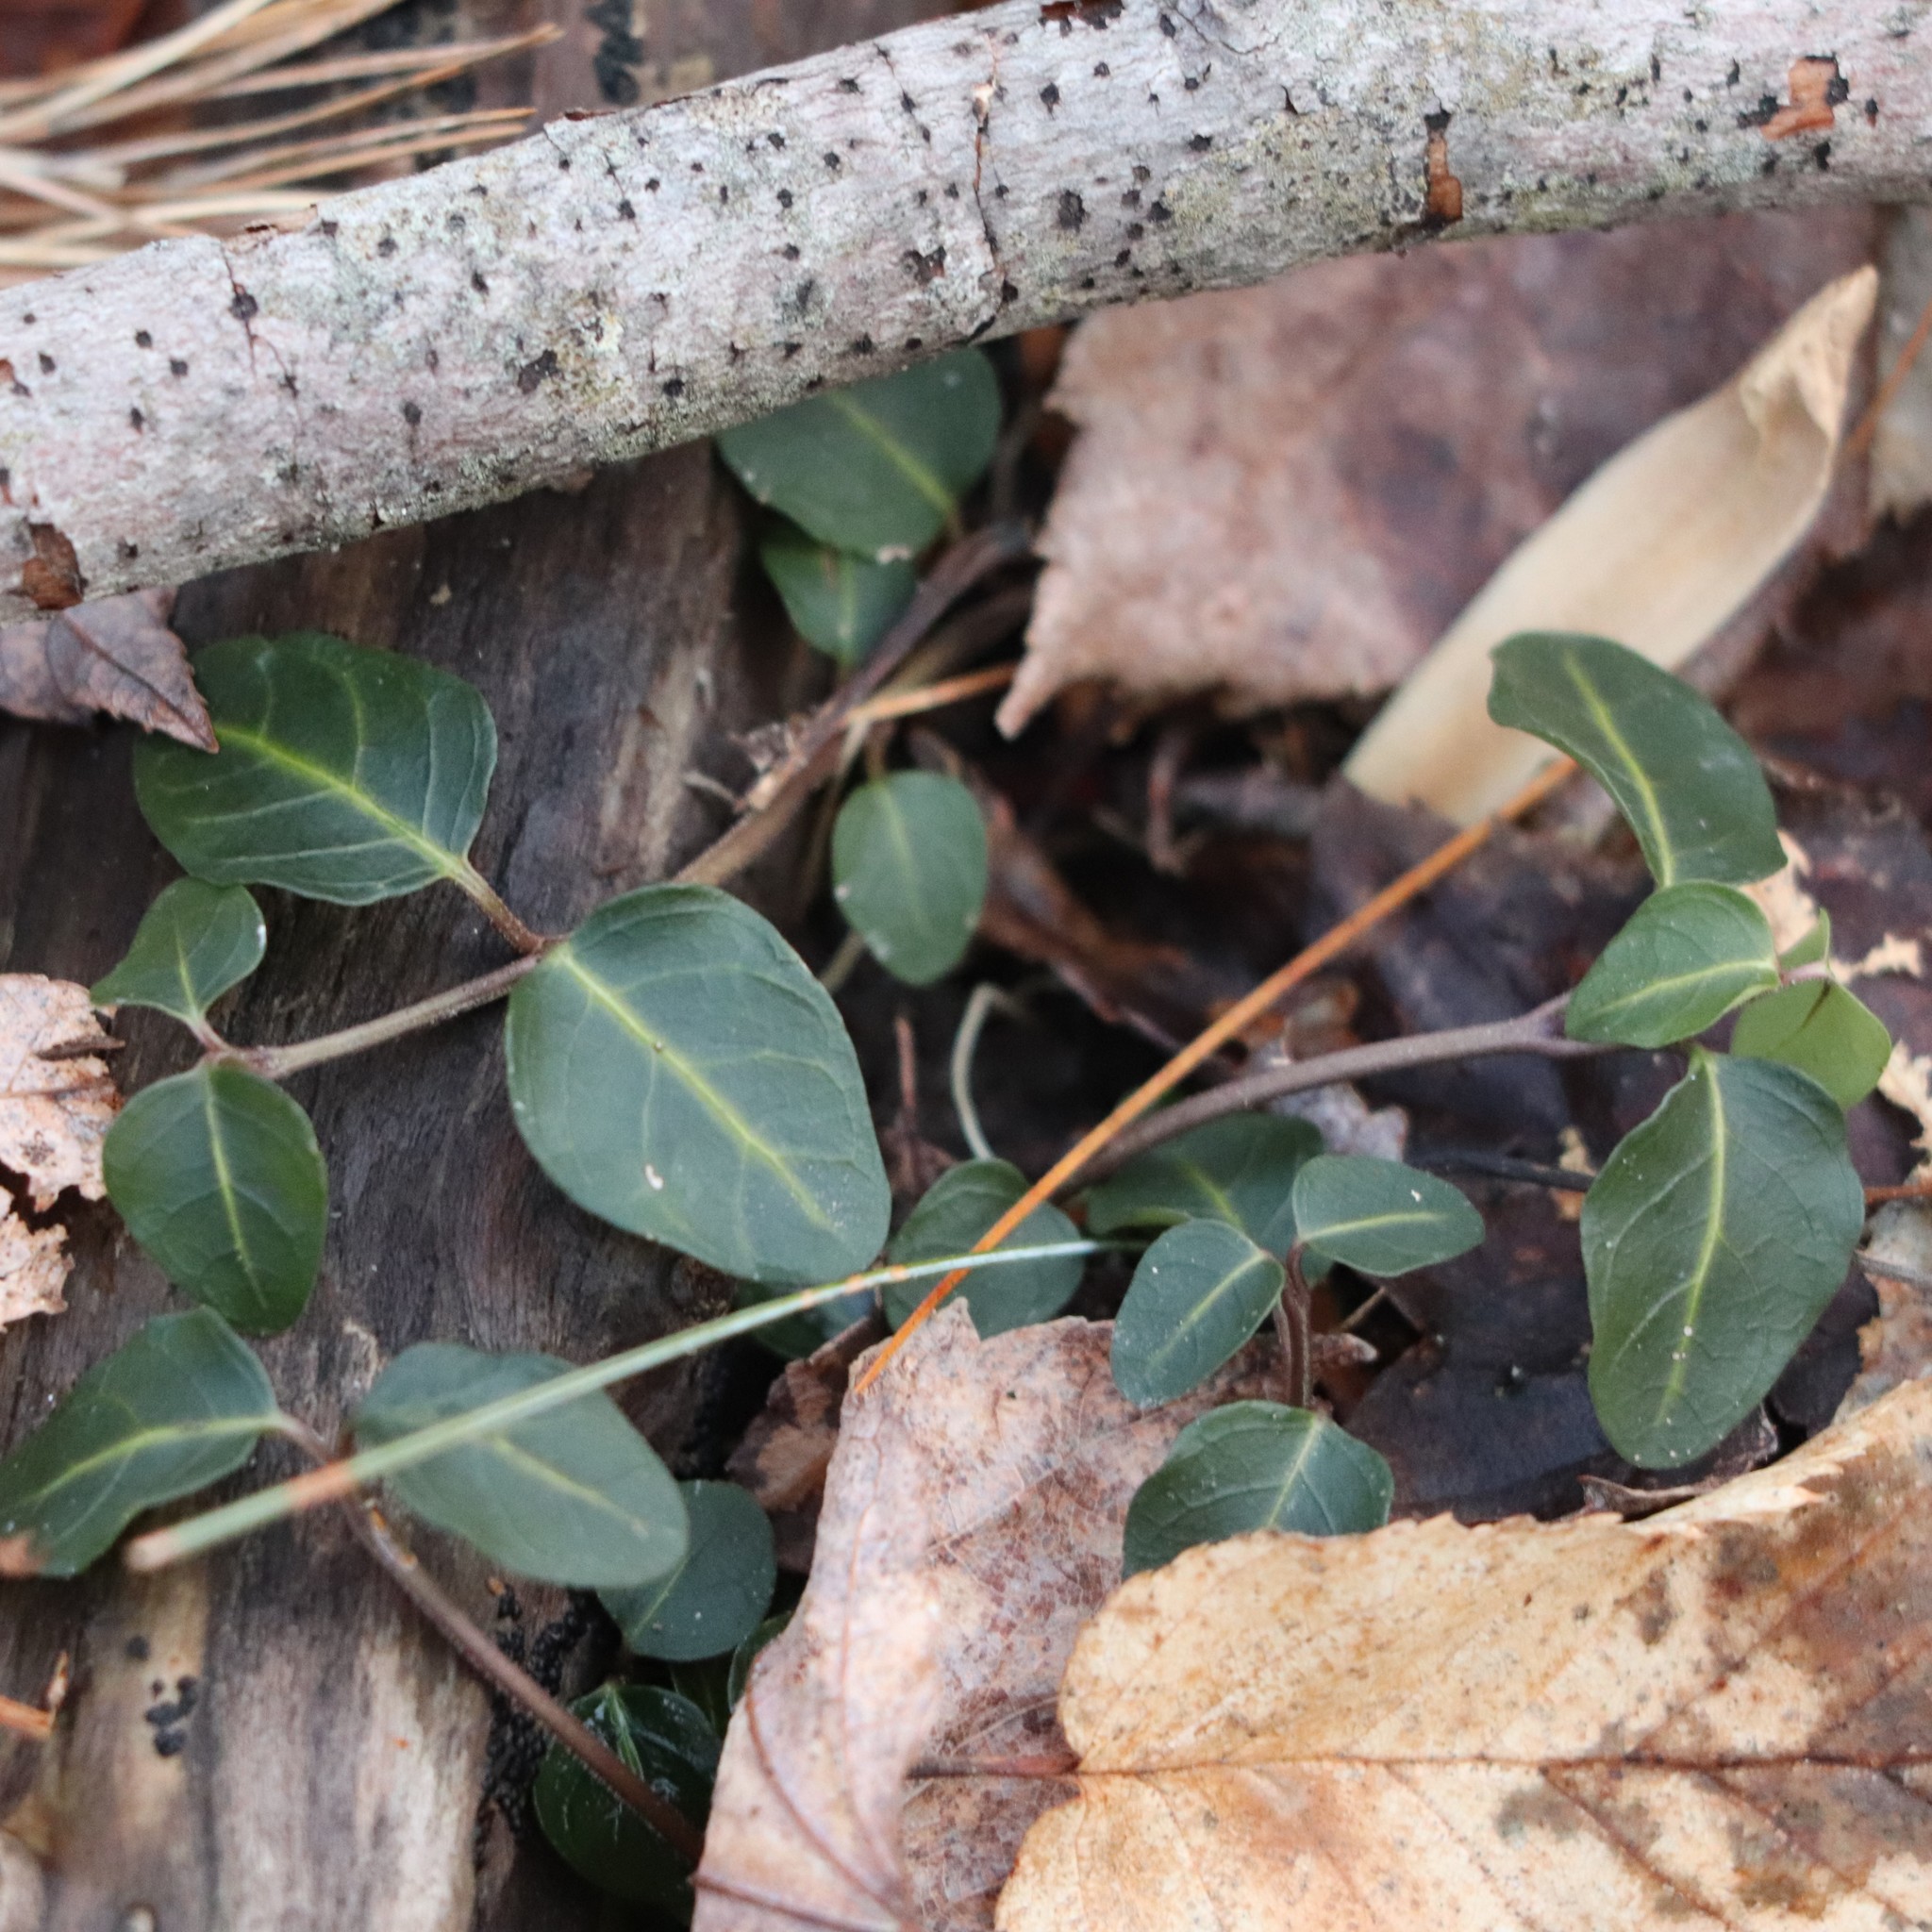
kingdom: Plantae
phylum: Tracheophyta
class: Magnoliopsida
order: Gentianales
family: Rubiaceae
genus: Mitchella
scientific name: Mitchella repens
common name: Partridge-berry
